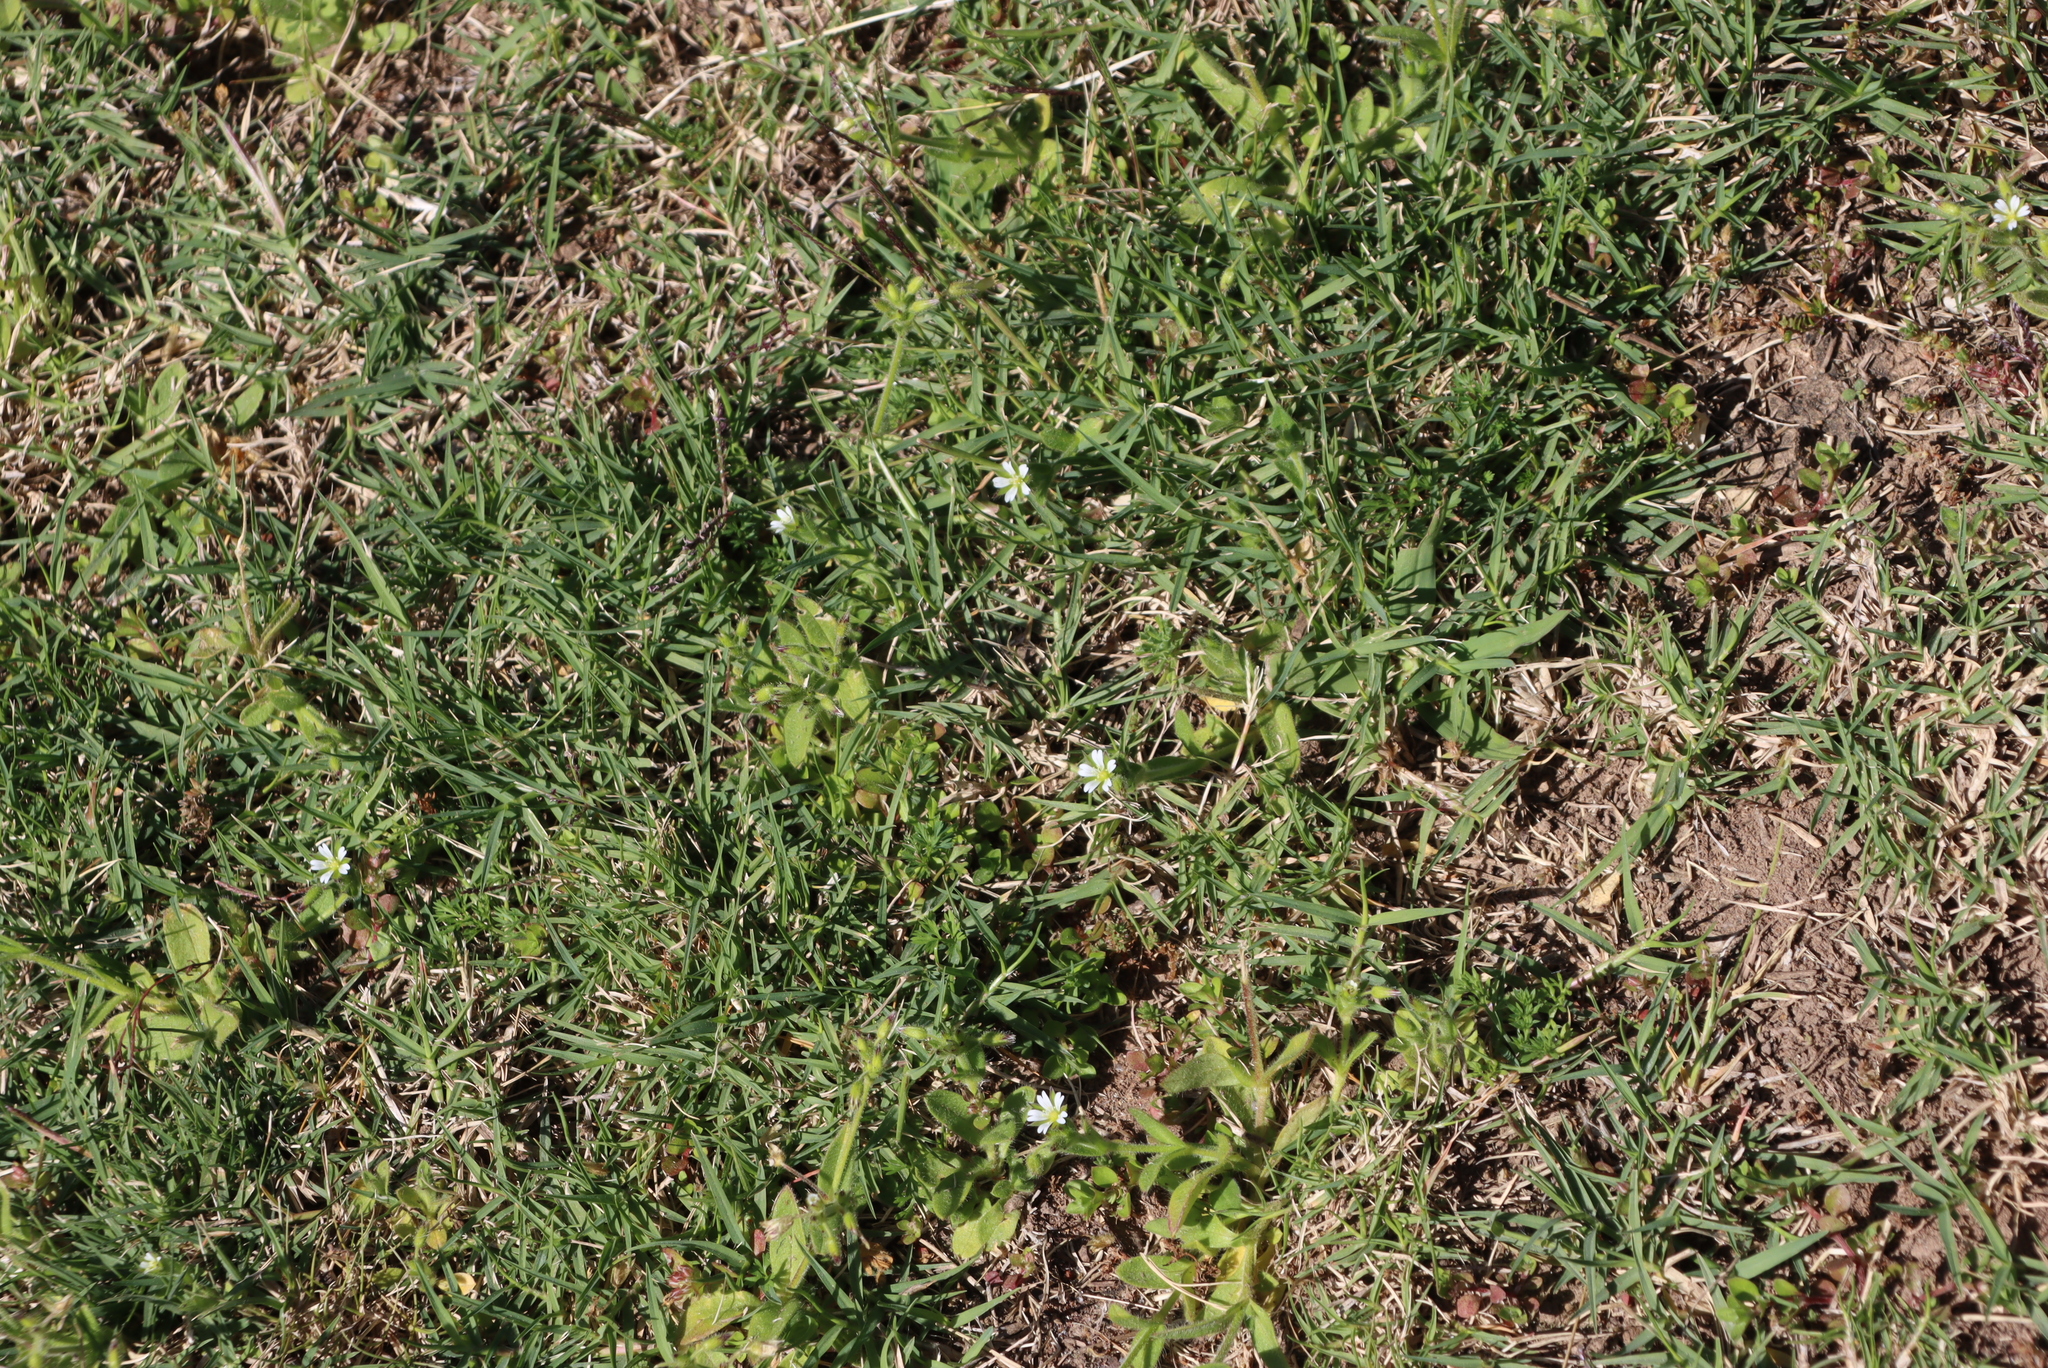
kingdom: Plantae
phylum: Tracheophyta
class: Magnoliopsida
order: Caryophyllales
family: Caryophyllaceae
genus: Cerastium
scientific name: Cerastium glomeratum
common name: Sticky chickweed
